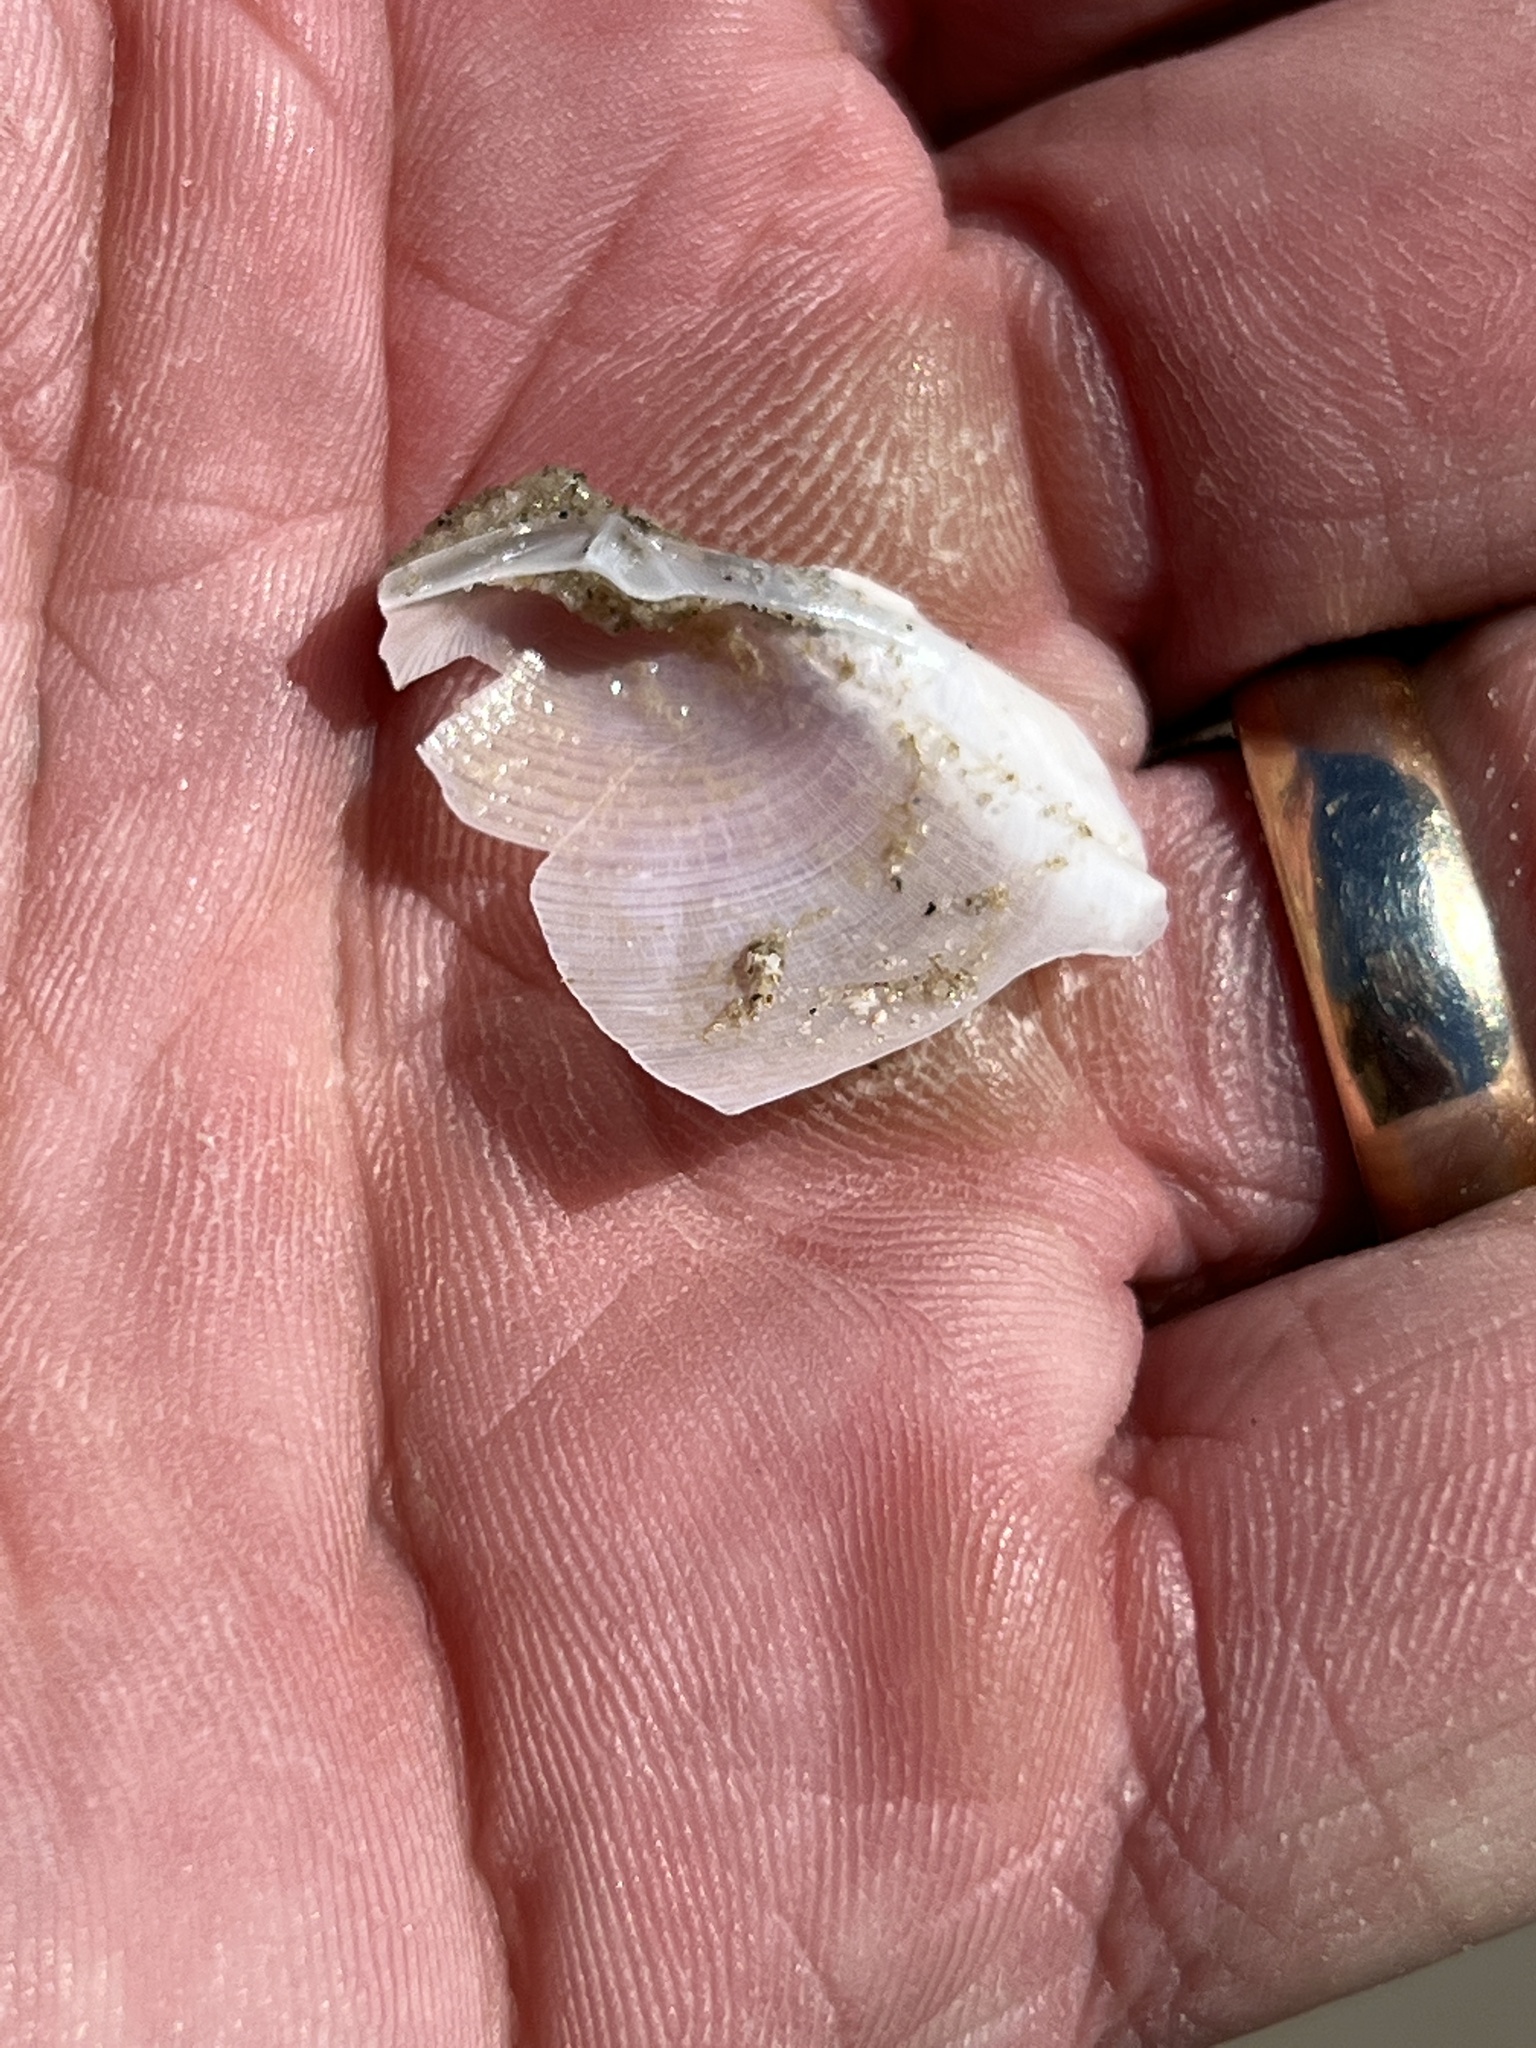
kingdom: Animalia
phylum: Mollusca
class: Bivalvia
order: Venerida
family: Anatinellidae
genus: Raeta
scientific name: Raeta plicatella
